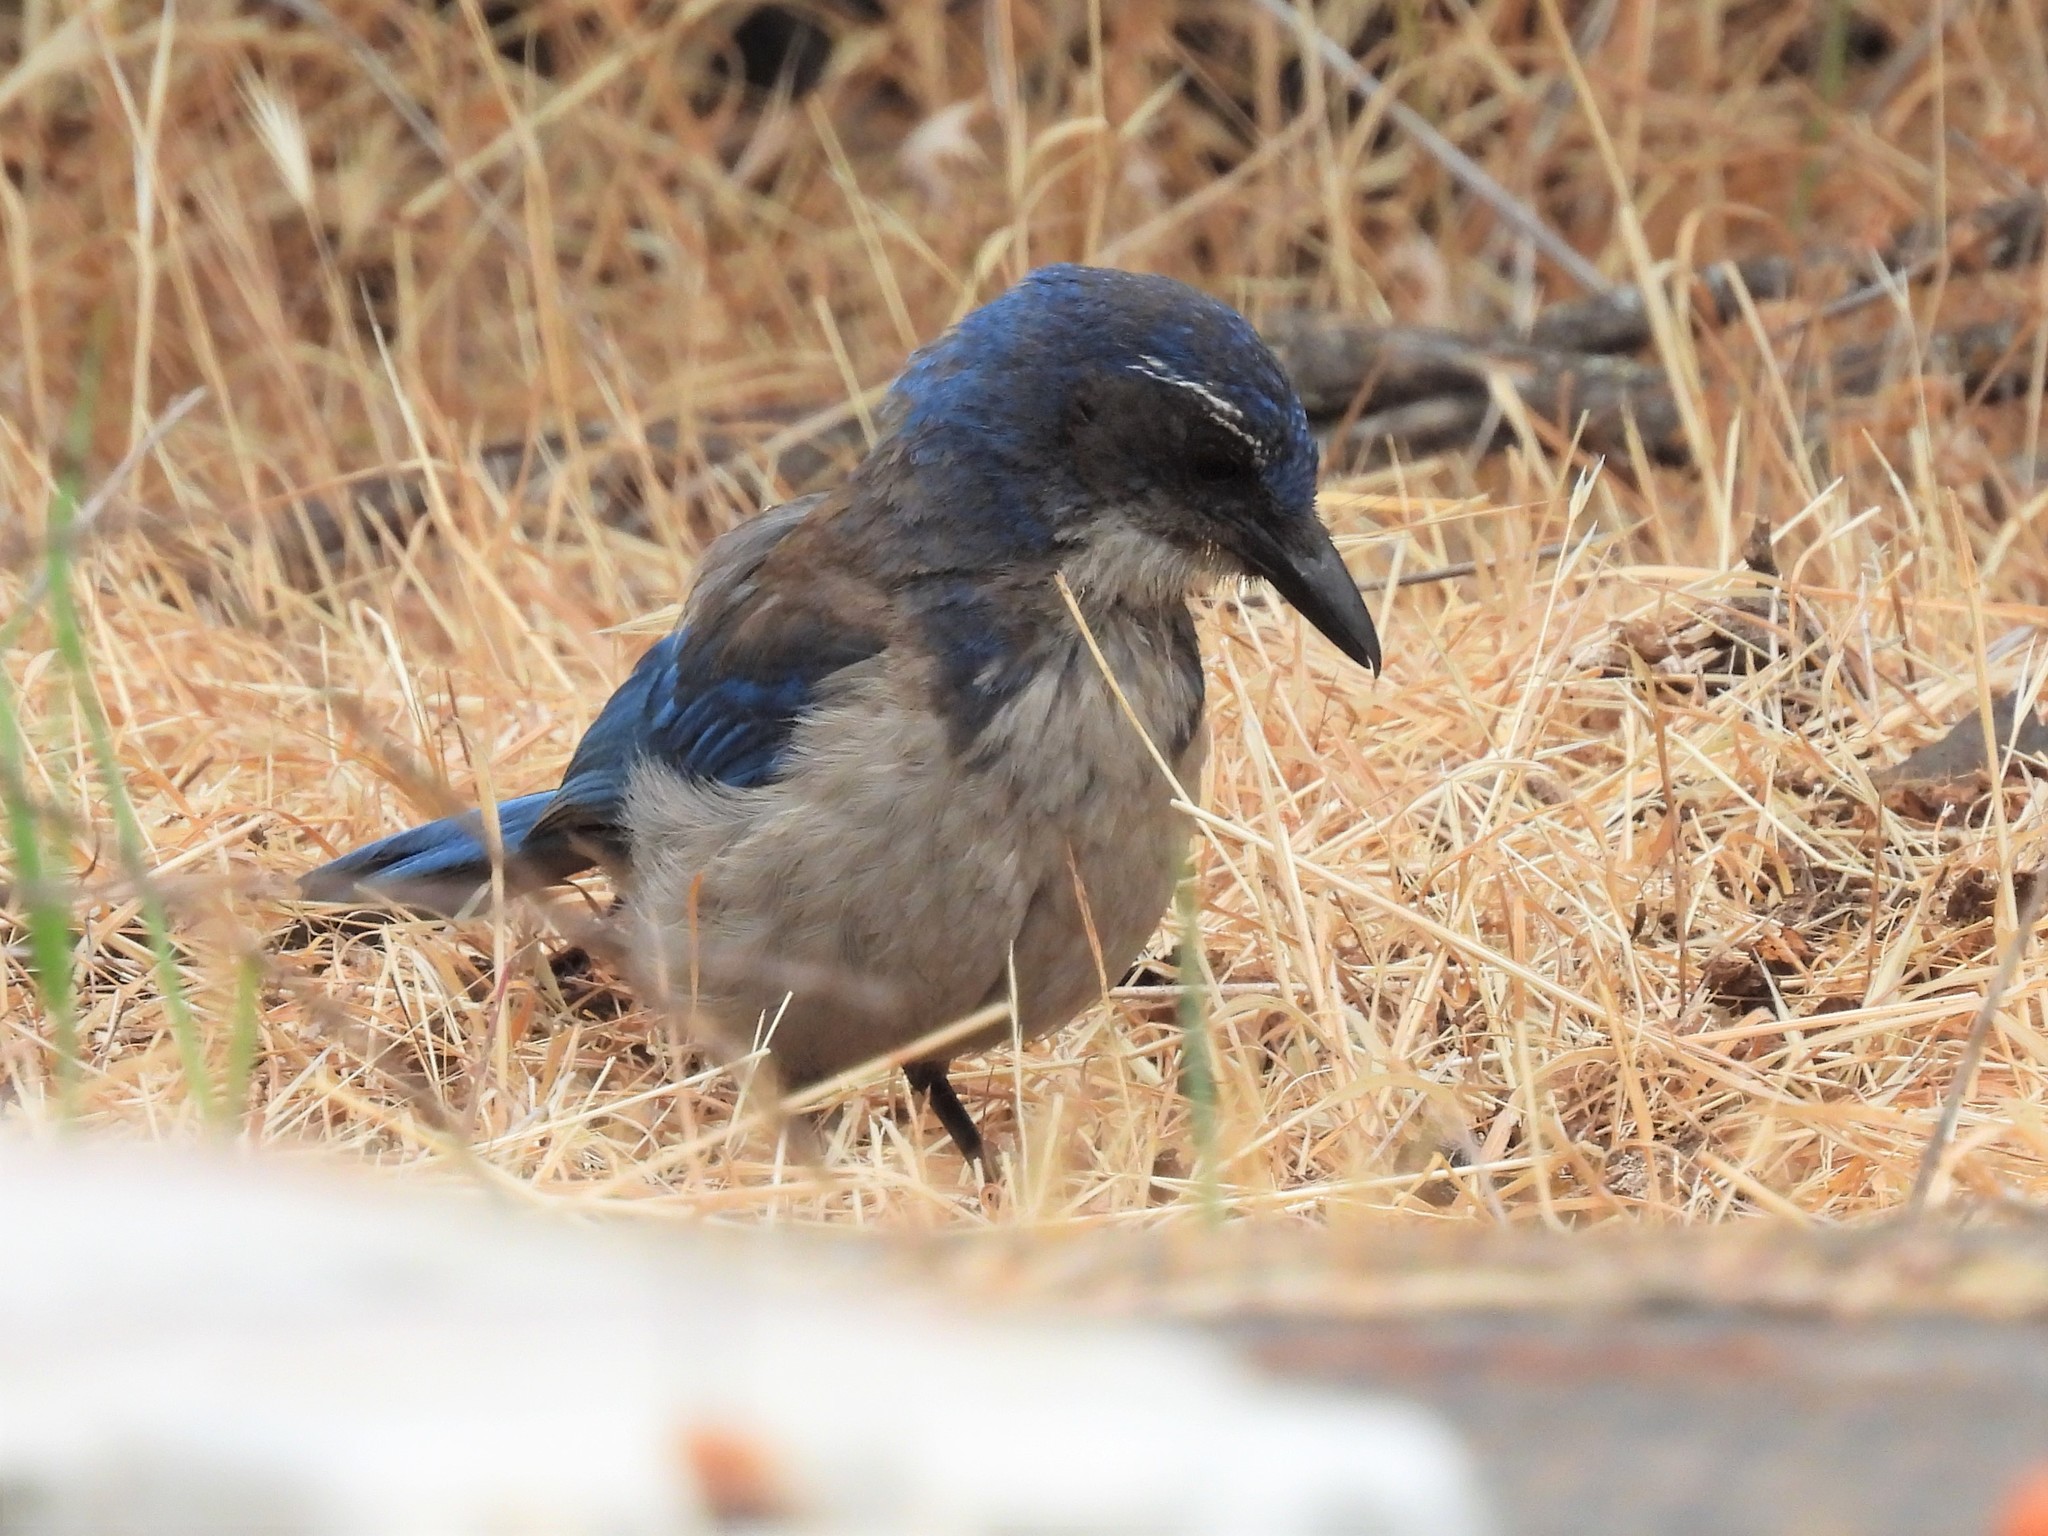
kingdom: Animalia
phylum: Chordata
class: Aves
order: Passeriformes
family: Corvidae
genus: Aphelocoma
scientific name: Aphelocoma californica
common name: California scrub-jay
